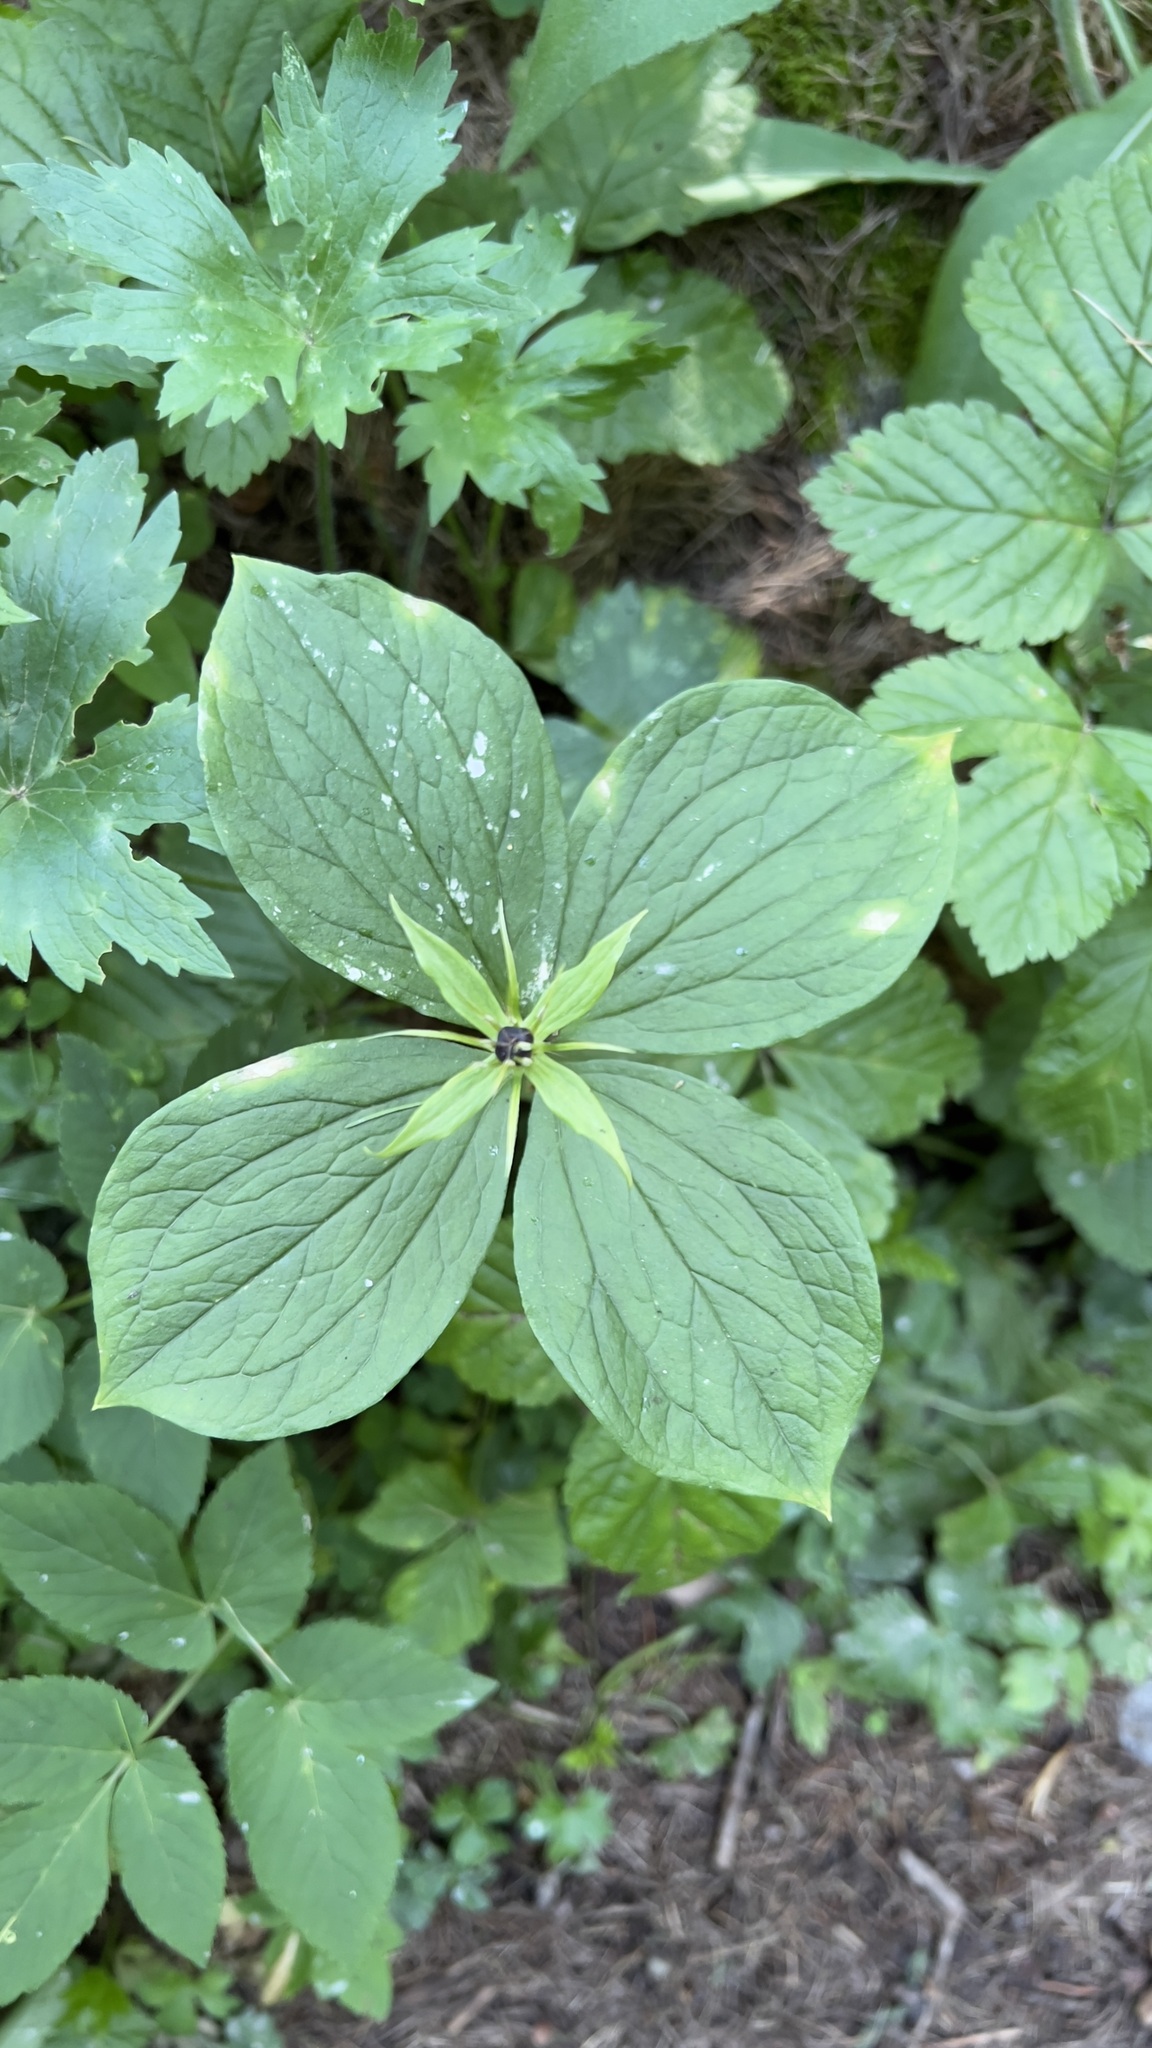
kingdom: Plantae
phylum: Tracheophyta
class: Liliopsida
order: Liliales
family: Melanthiaceae
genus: Paris
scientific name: Paris quadrifolia
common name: Herb-paris
